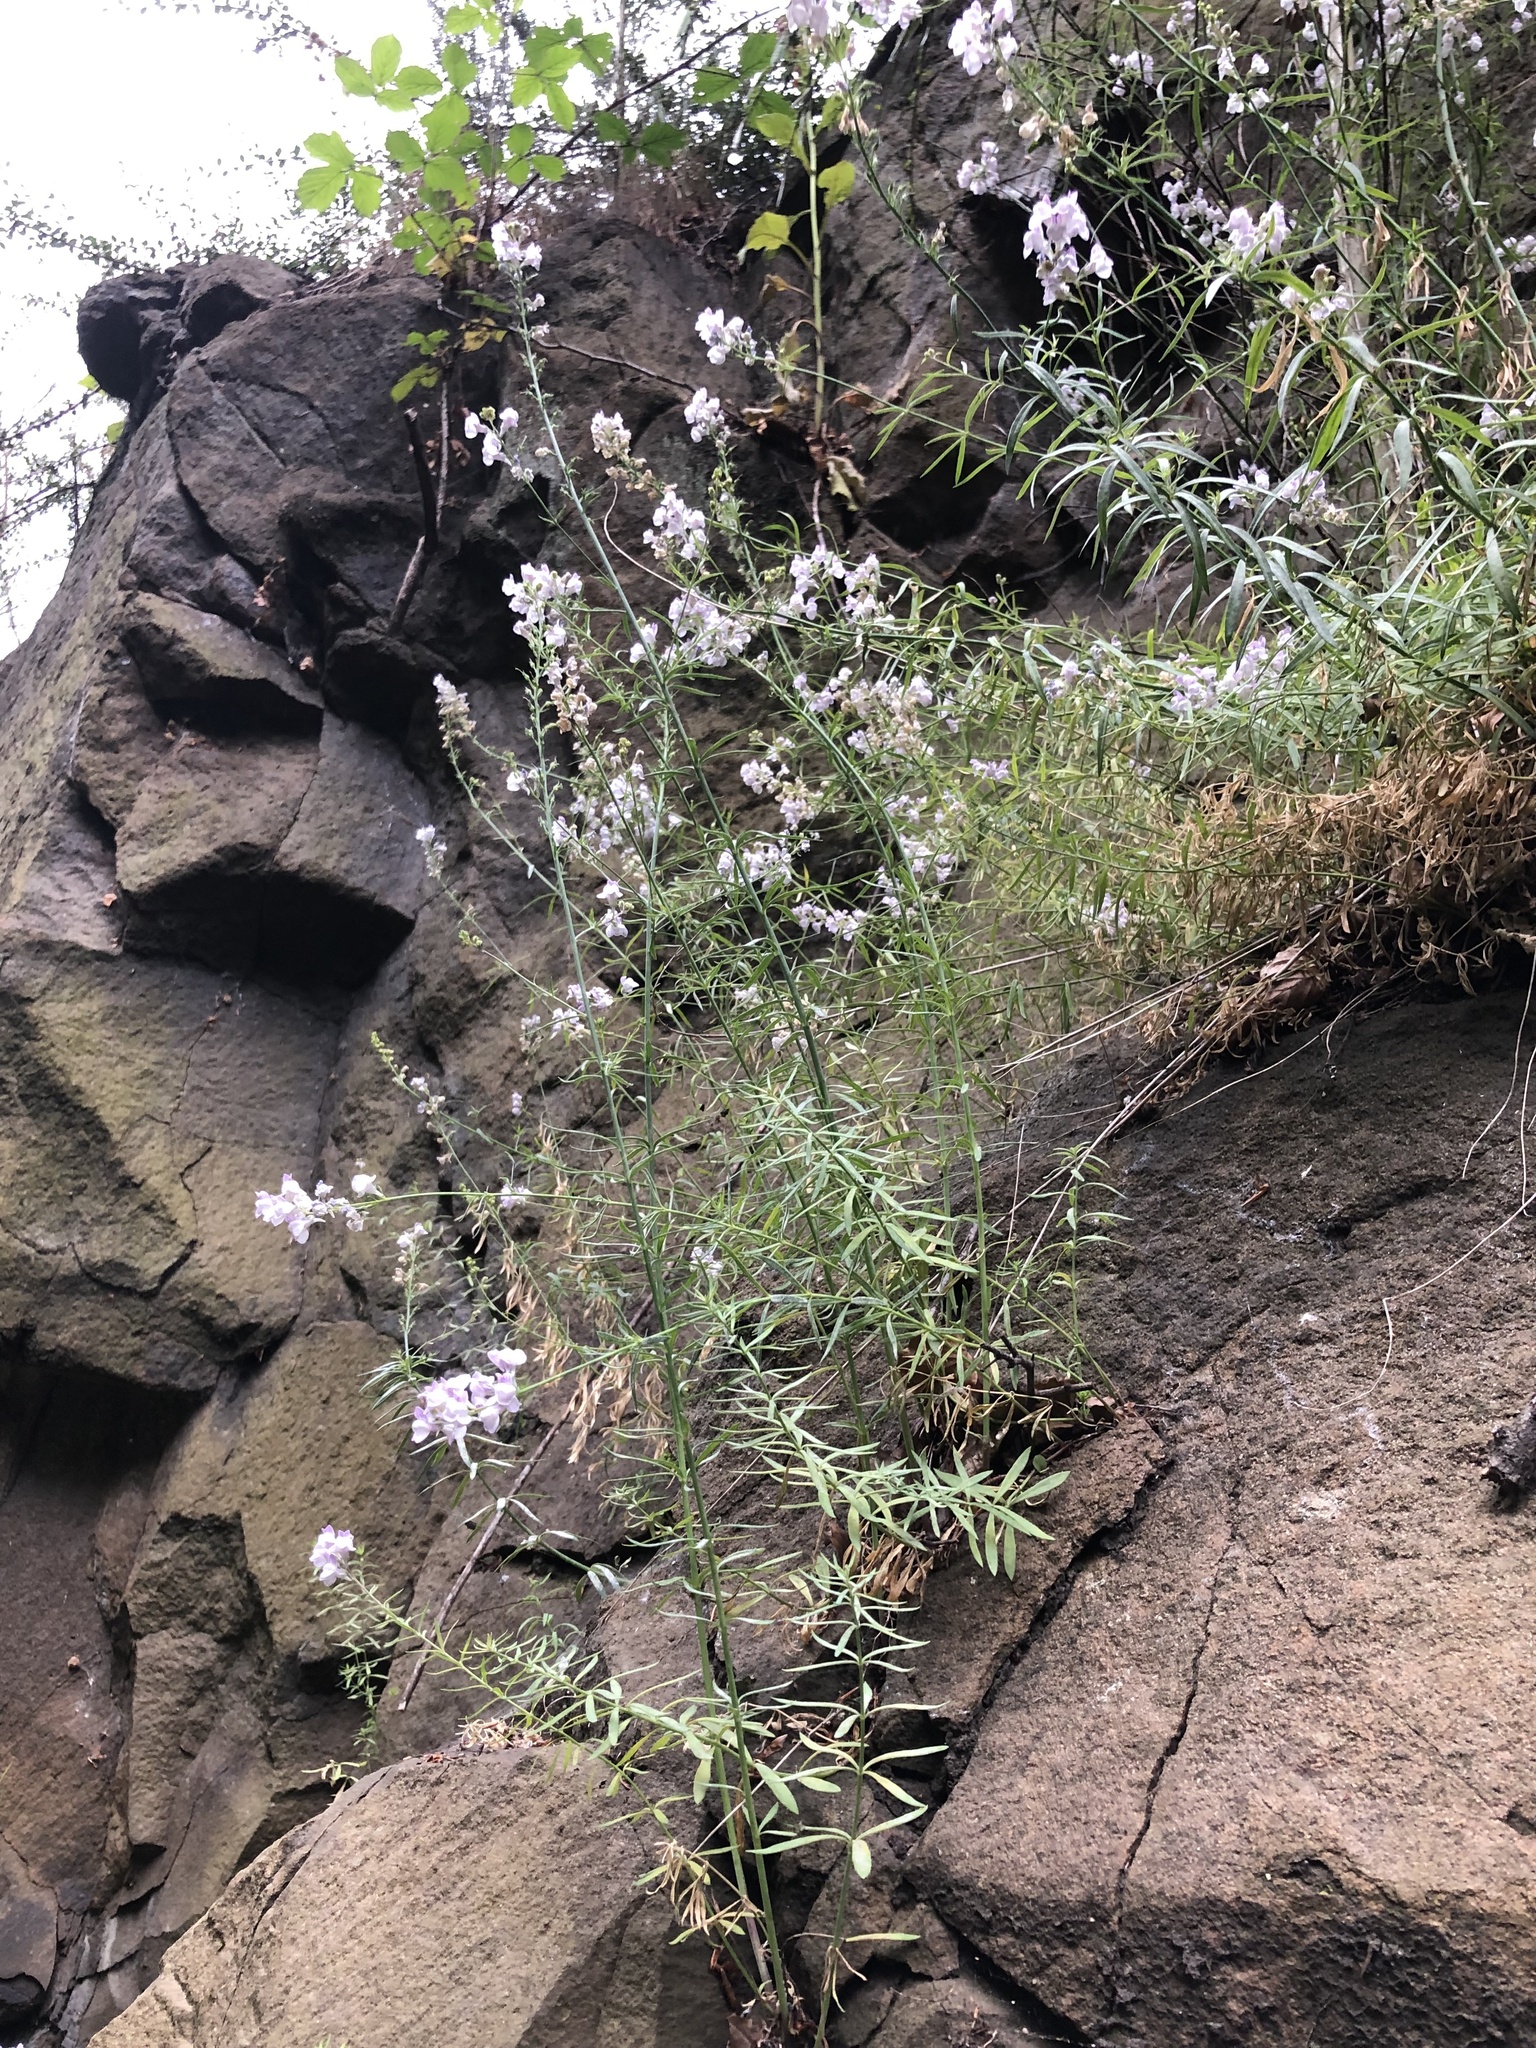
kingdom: Plantae
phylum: Tracheophyta
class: Magnoliopsida
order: Lamiales
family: Plantaginaceae
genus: Linaria
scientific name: Linaria repens
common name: Pale toadflax
